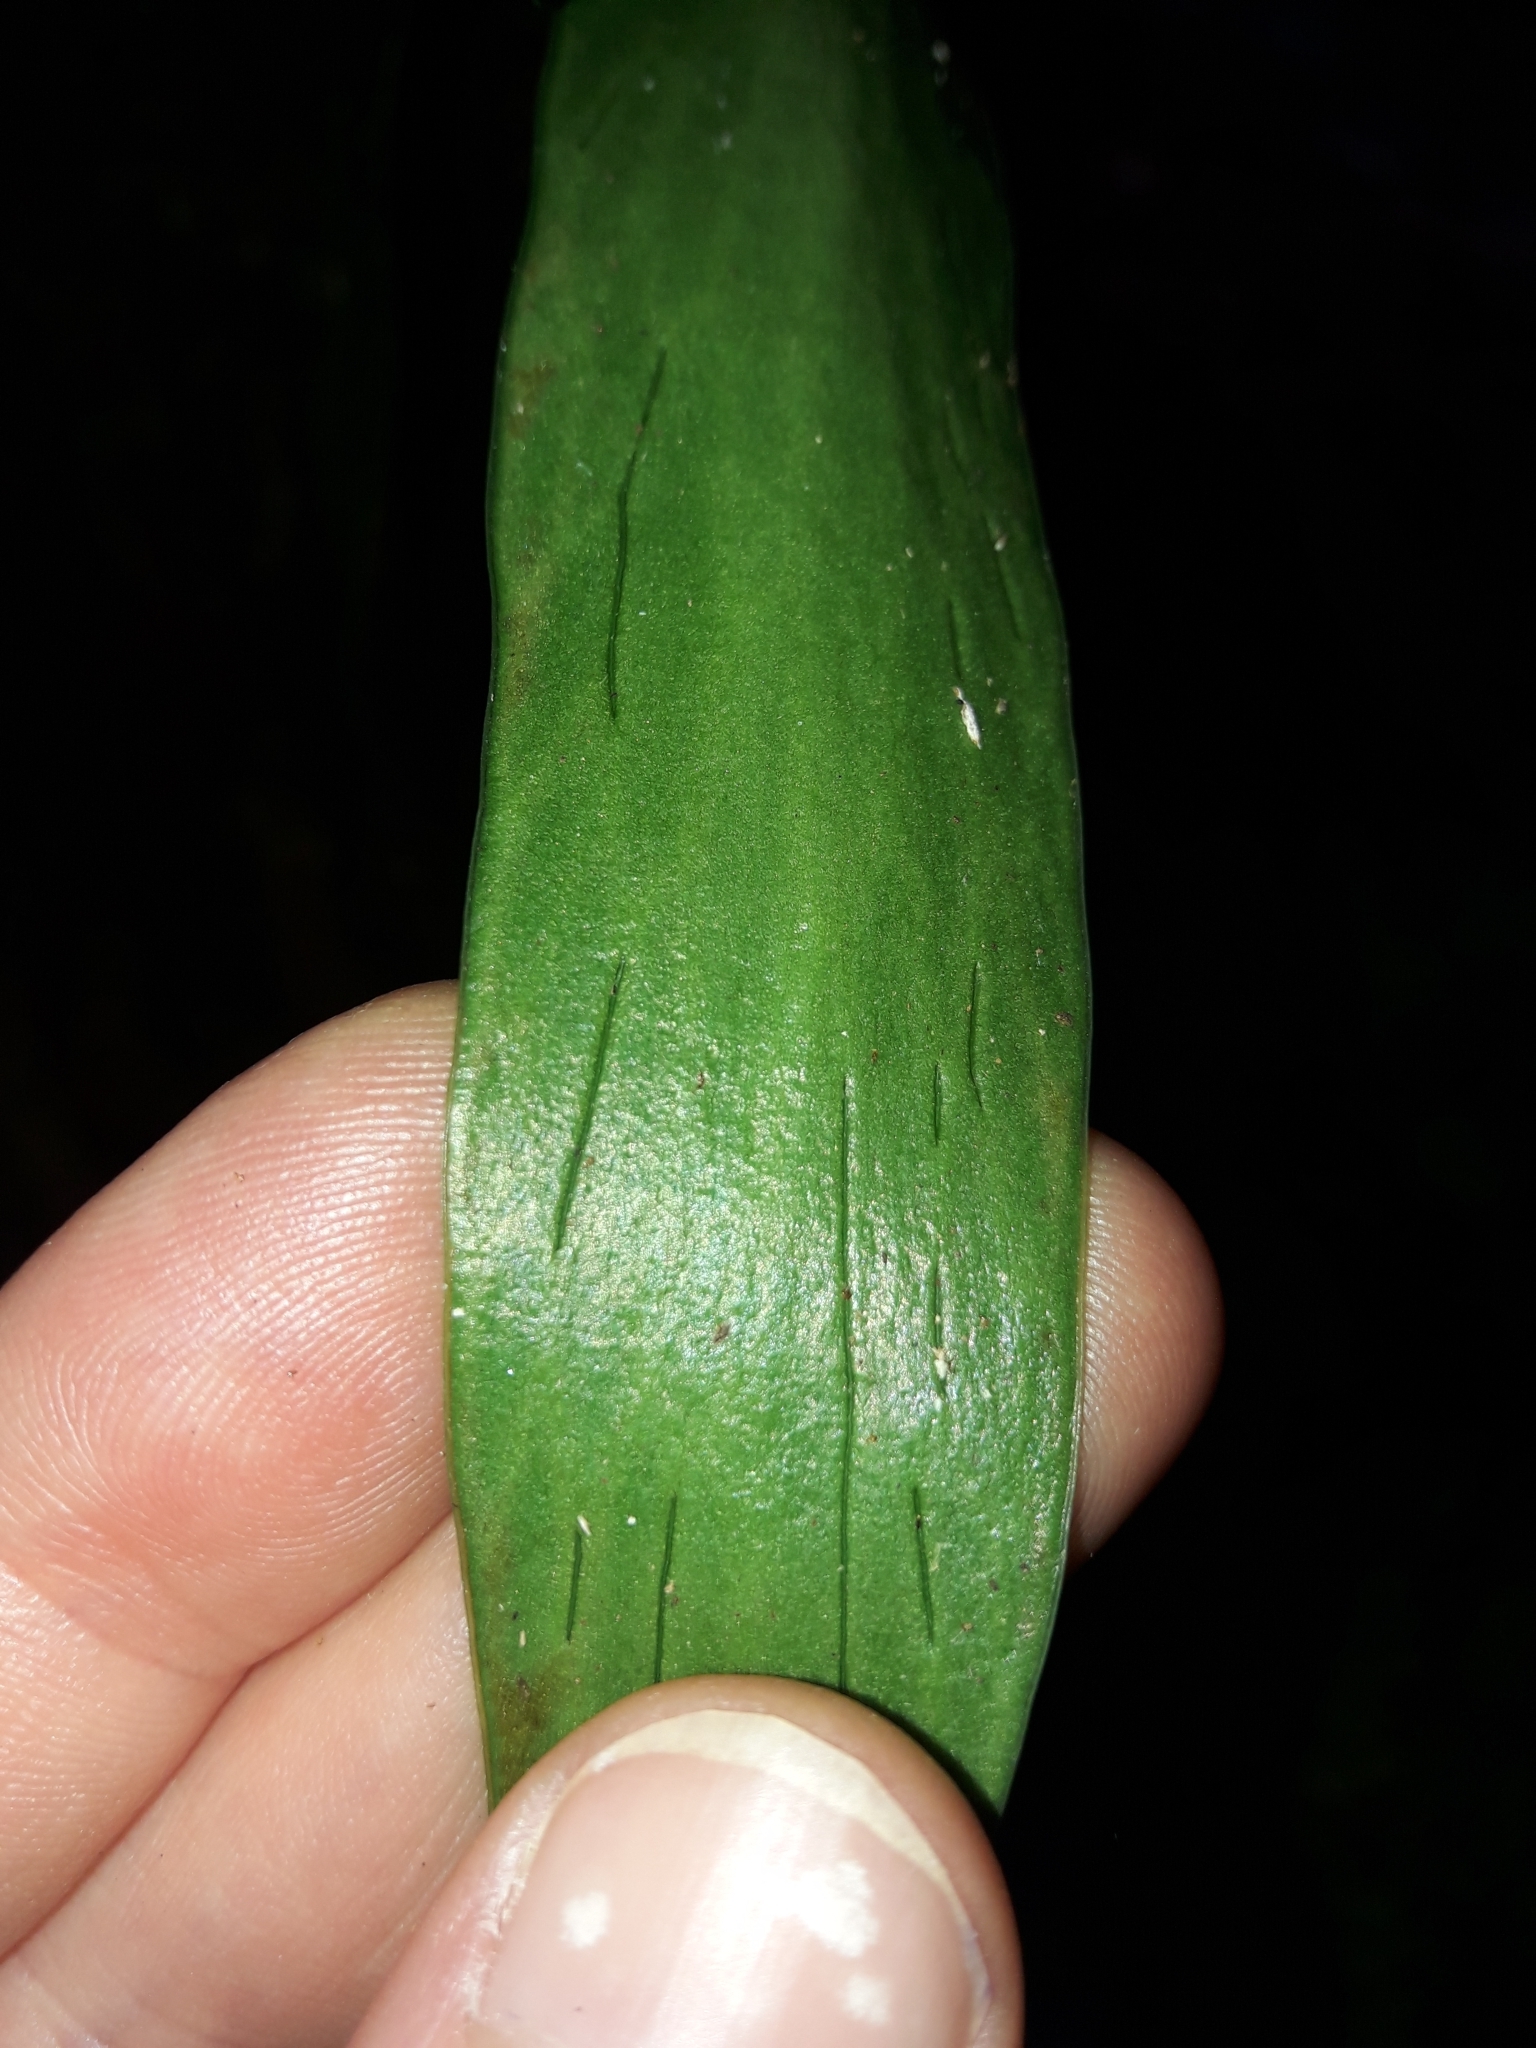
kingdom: Plantae
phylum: Tracheophyta
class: Polypodiopsida
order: Polypodiales
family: Pteridaceae
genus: Antrophyum
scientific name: Antrophyum novae-caledoniae
